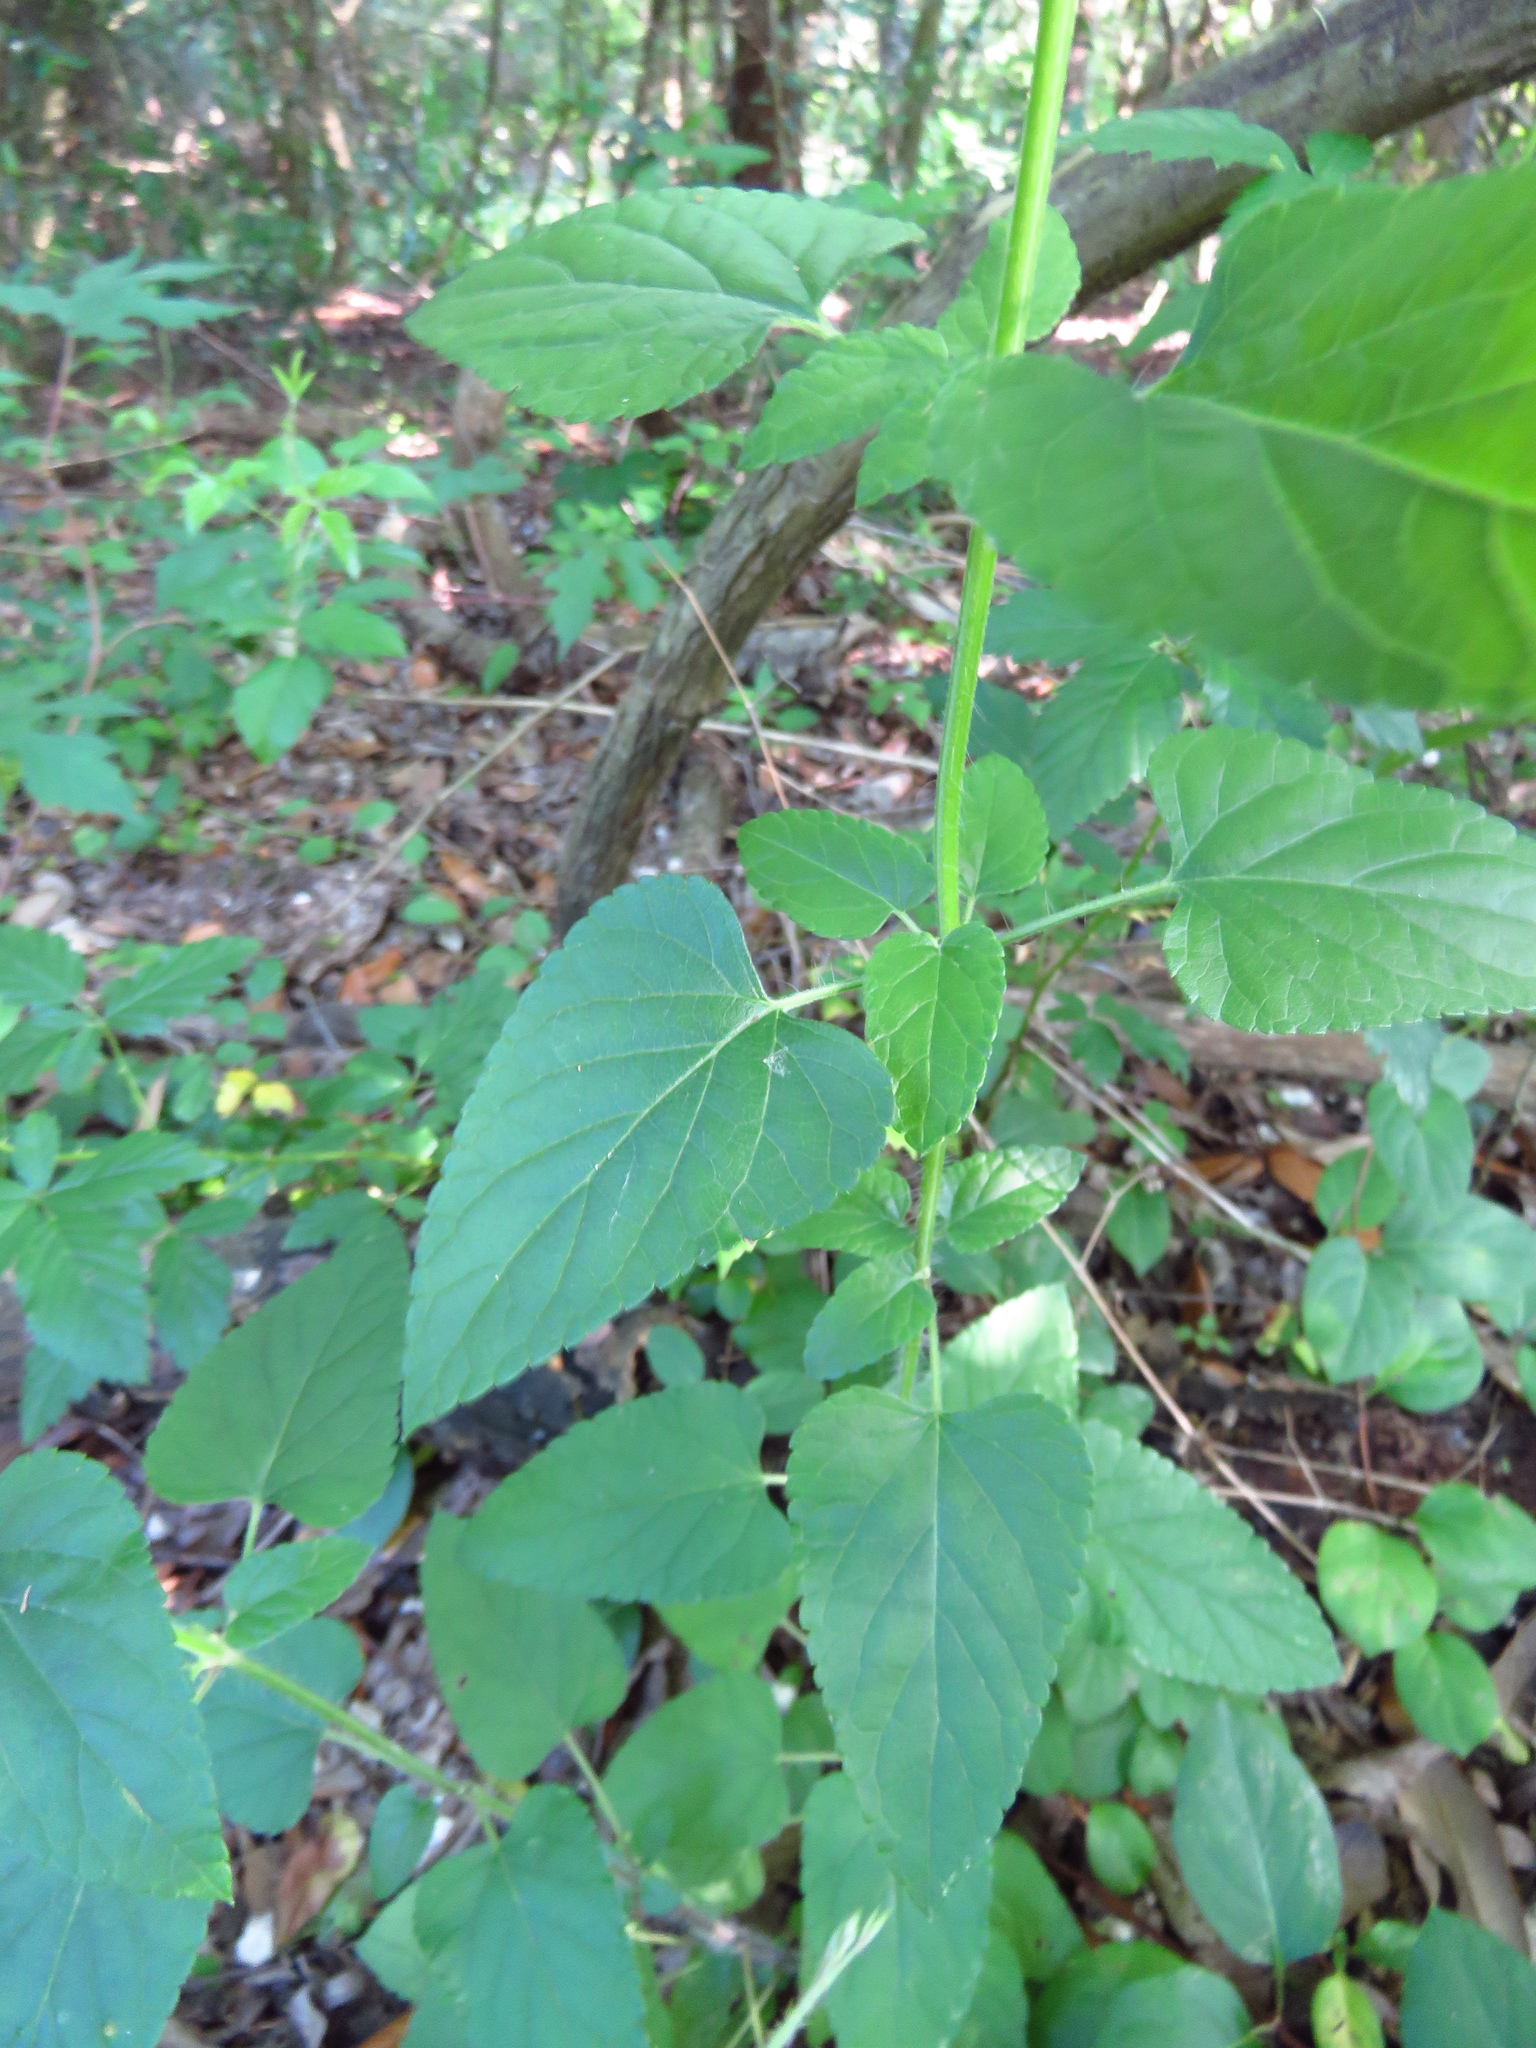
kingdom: Plantae
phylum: Tracheophyta
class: Magnoliopsida
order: Lamiales
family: Lamiaceae
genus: Salvia
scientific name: Salvia coccinea
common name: Blood sage
